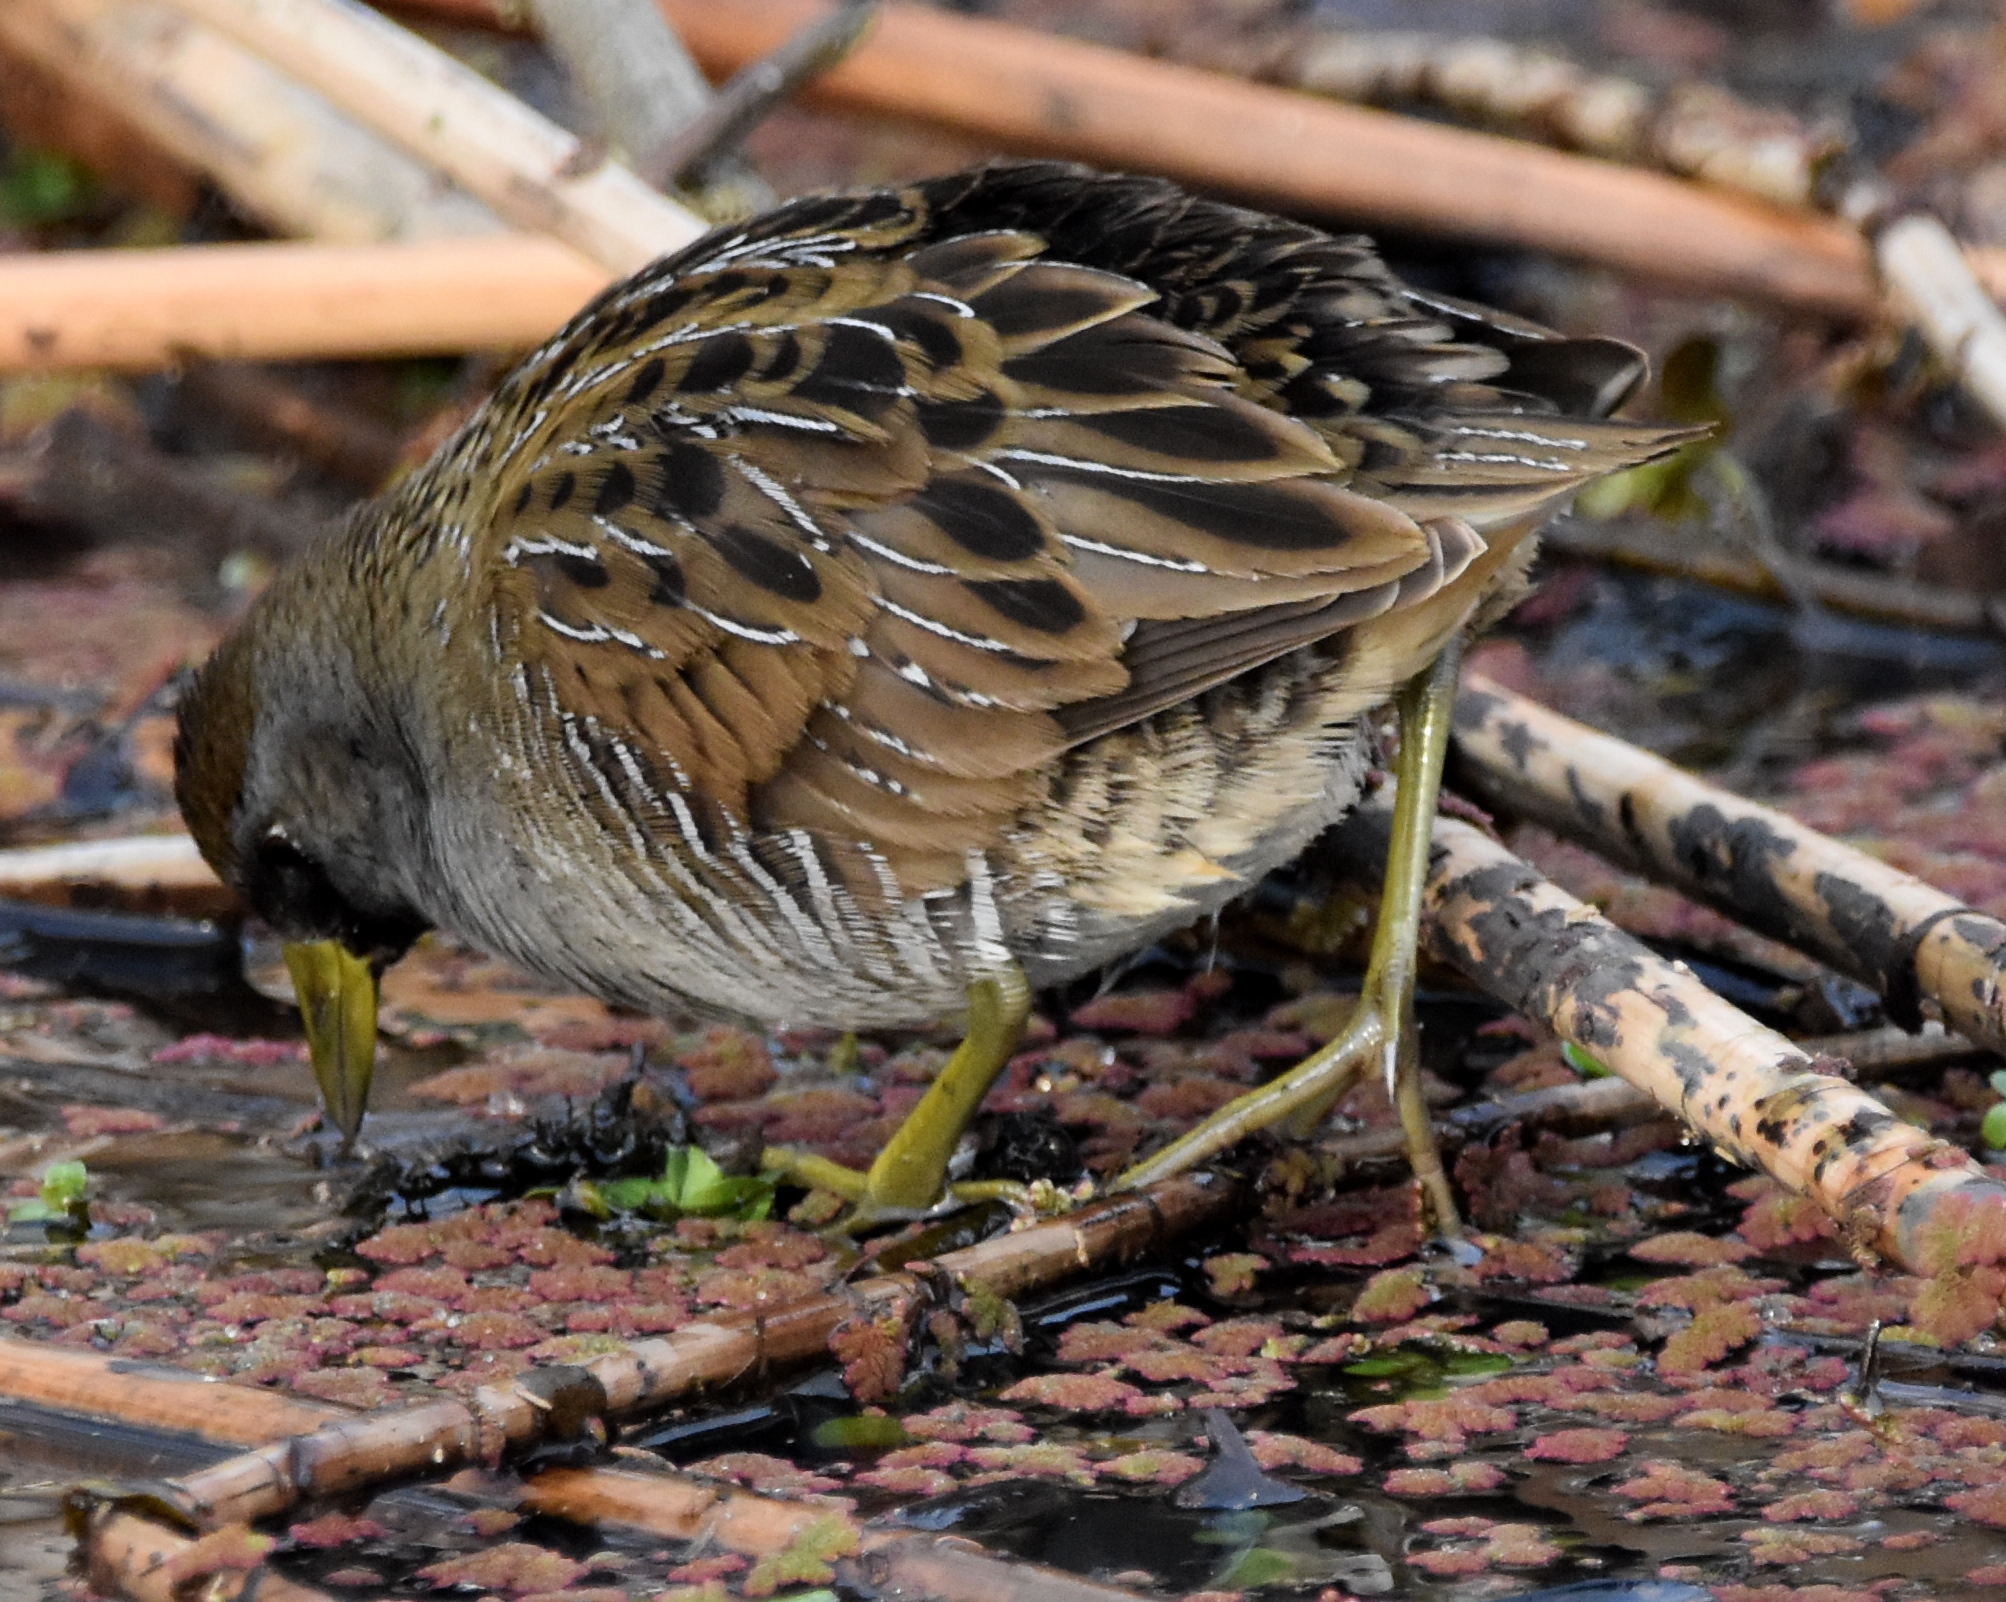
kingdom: Animalia
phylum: Chordata
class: Aves
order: Gruiformes
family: Rallidae
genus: Porzana
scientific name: Porzana carolina
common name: Sora
